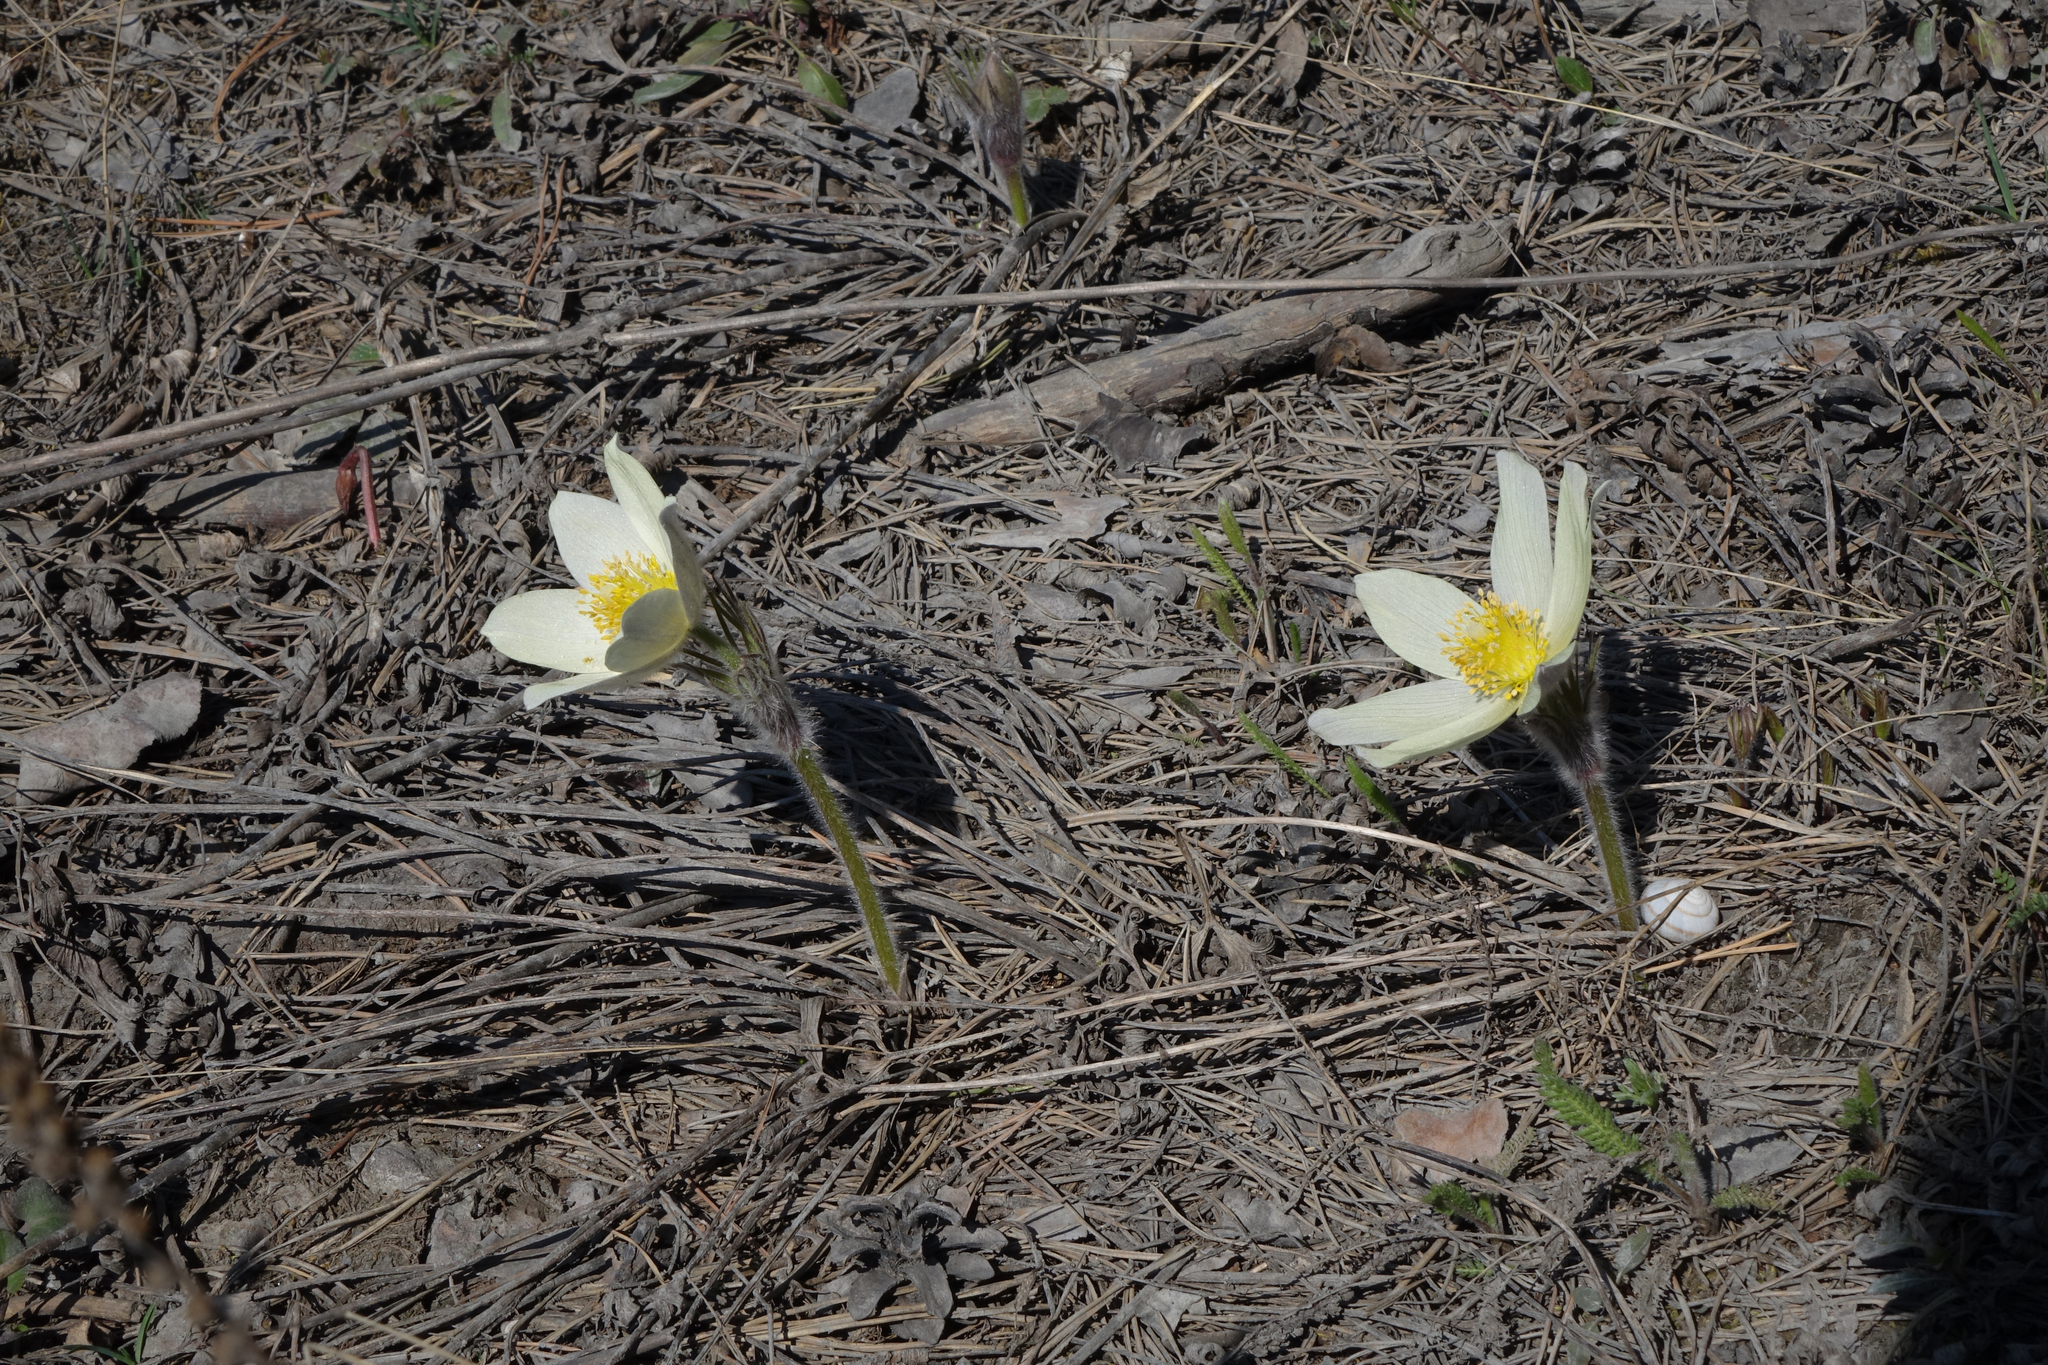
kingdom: Plantae
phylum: Tracheophyta
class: Magnoliopsida
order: Ranunculales
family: Ranunculaceae
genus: Pulsatilla
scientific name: Pulsatilla patens
